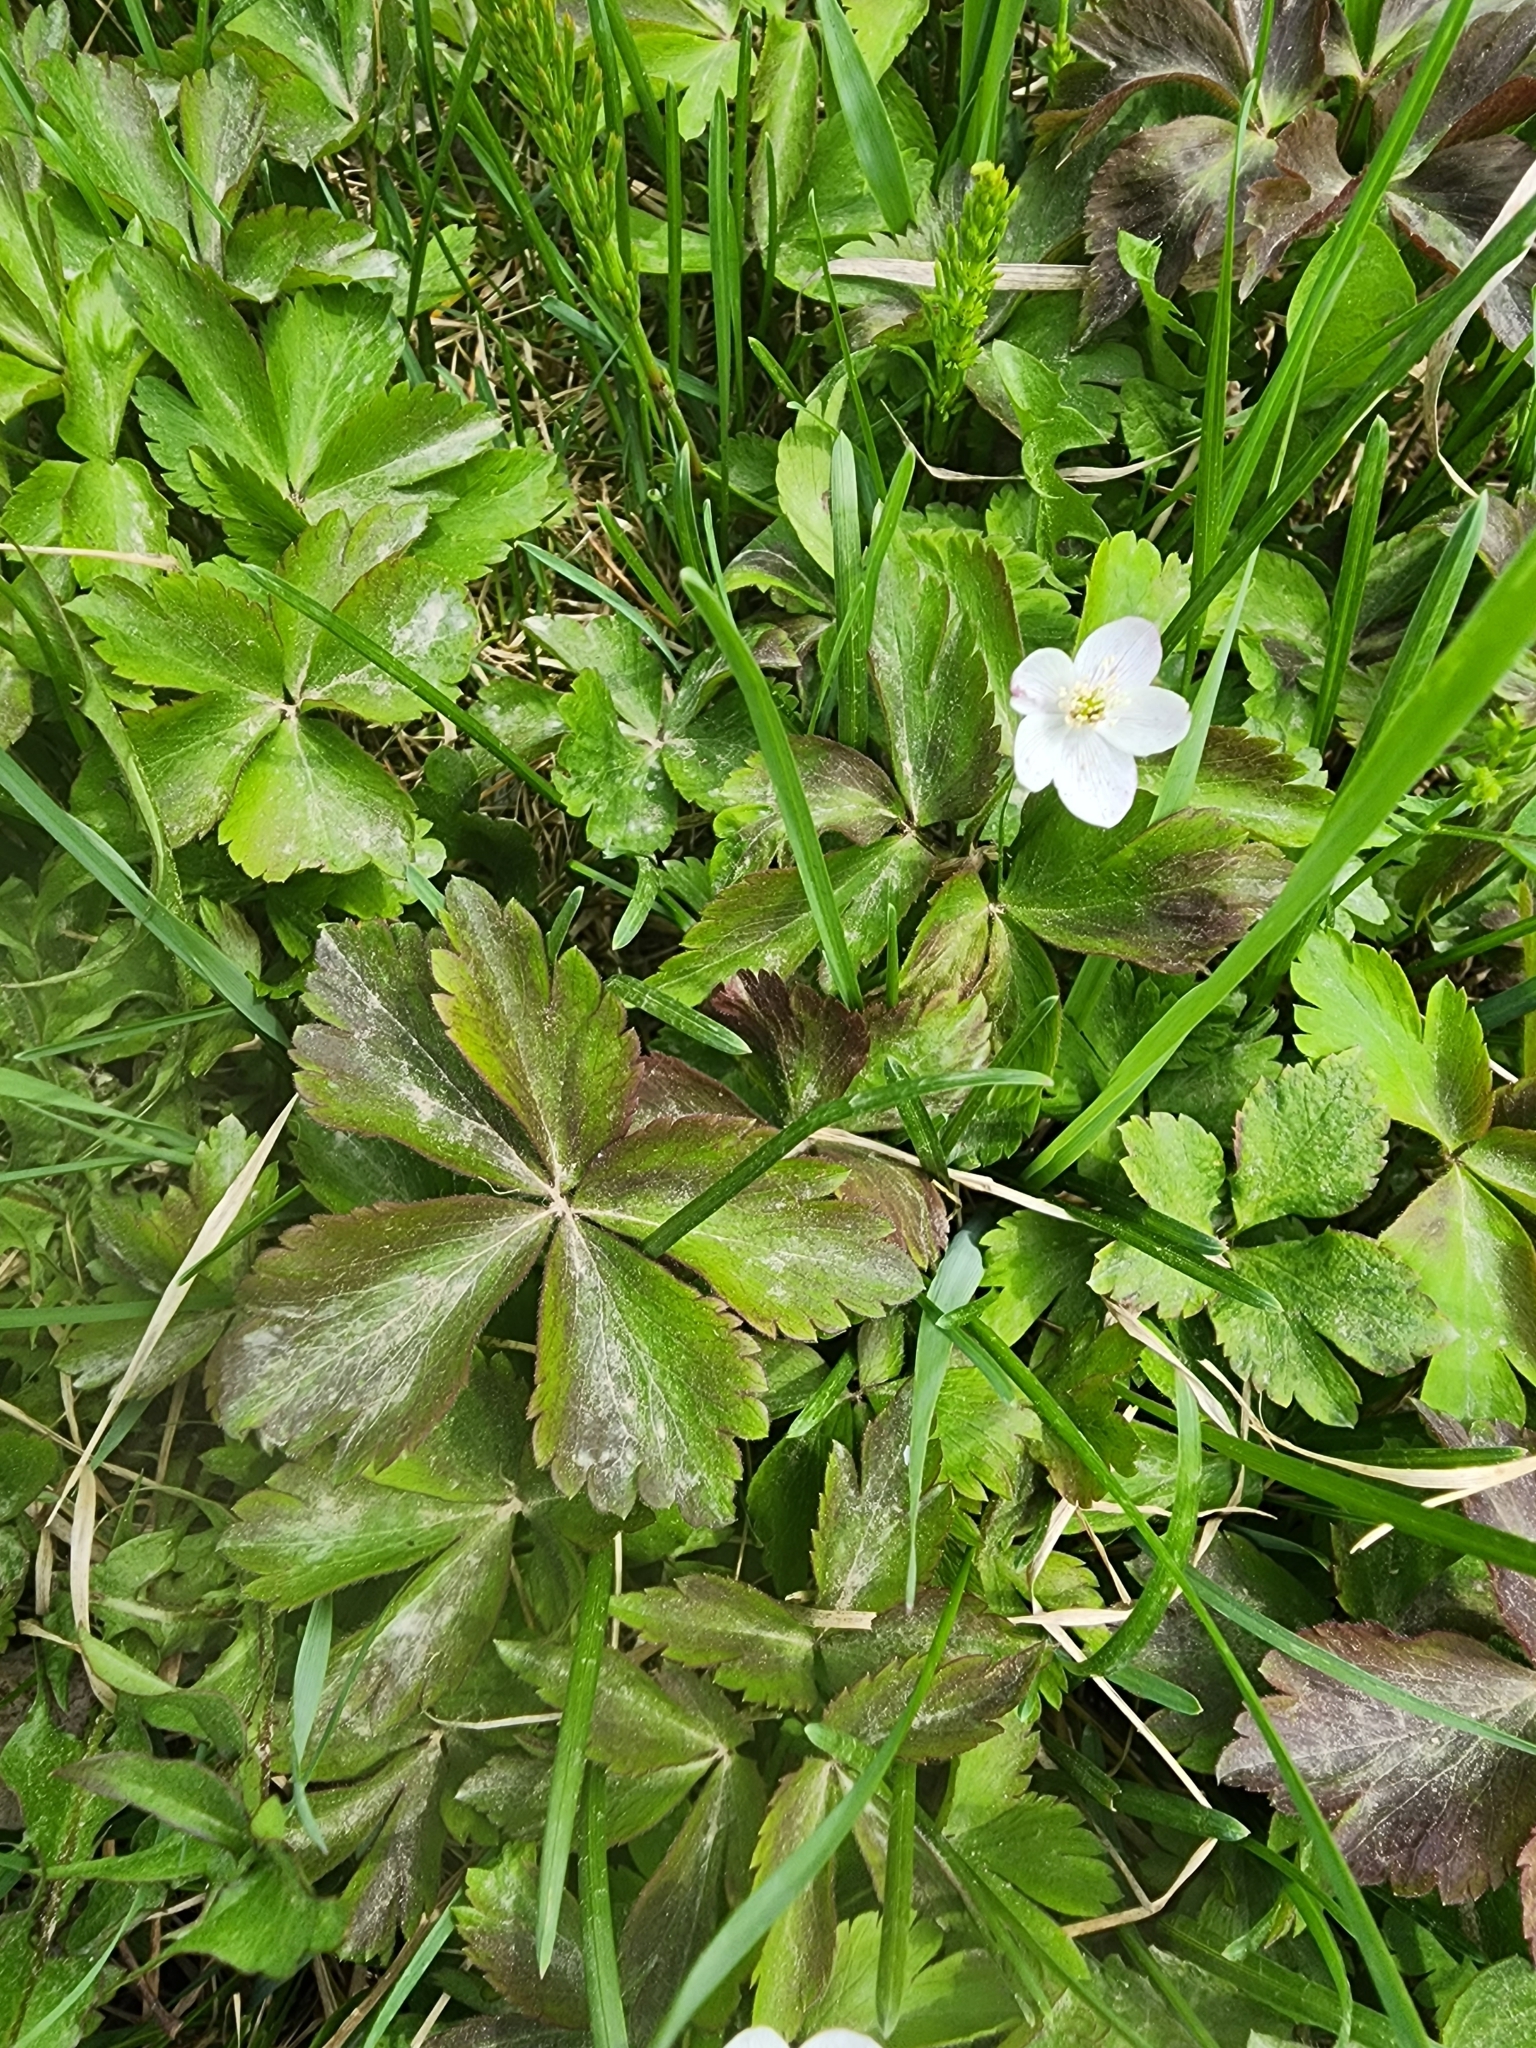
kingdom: Plantae
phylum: Tracheophyta
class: Magnoliopsida
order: Ranunculales
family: Ranunculaceae
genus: Anemone
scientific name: Anemone quinquefolia
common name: Wood anemone
